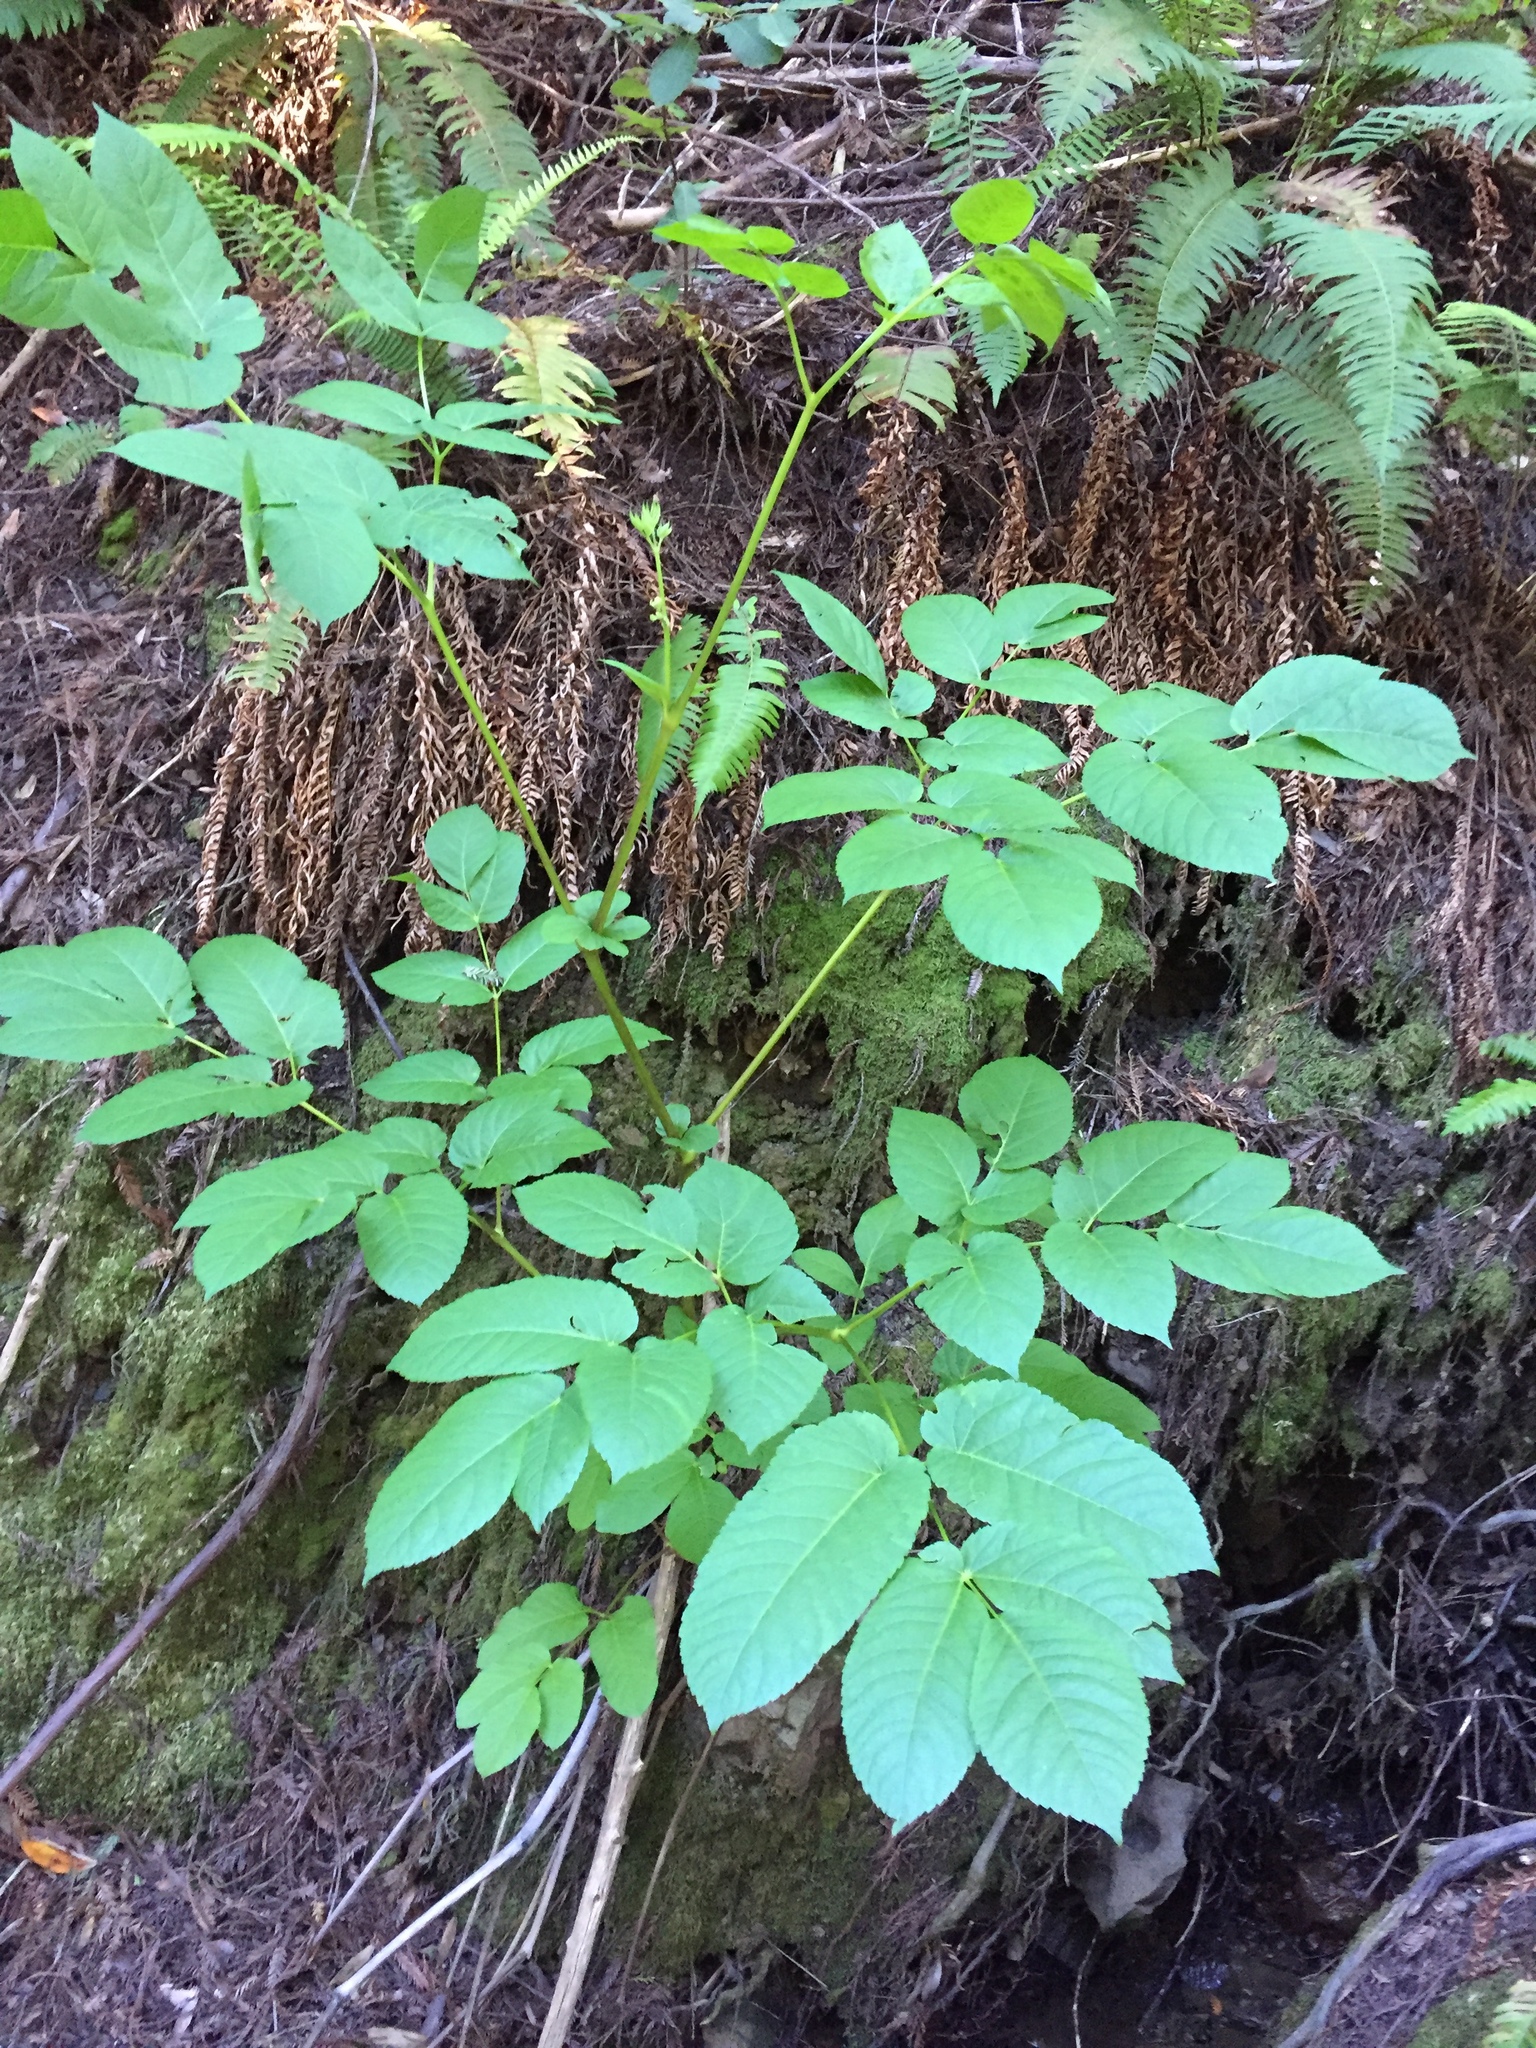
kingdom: Plantae
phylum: Tracheophyta
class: Magnoliopsida
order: Apiales
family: Araliaceae
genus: Aralia
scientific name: Aralia californica
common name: California-ginseng
